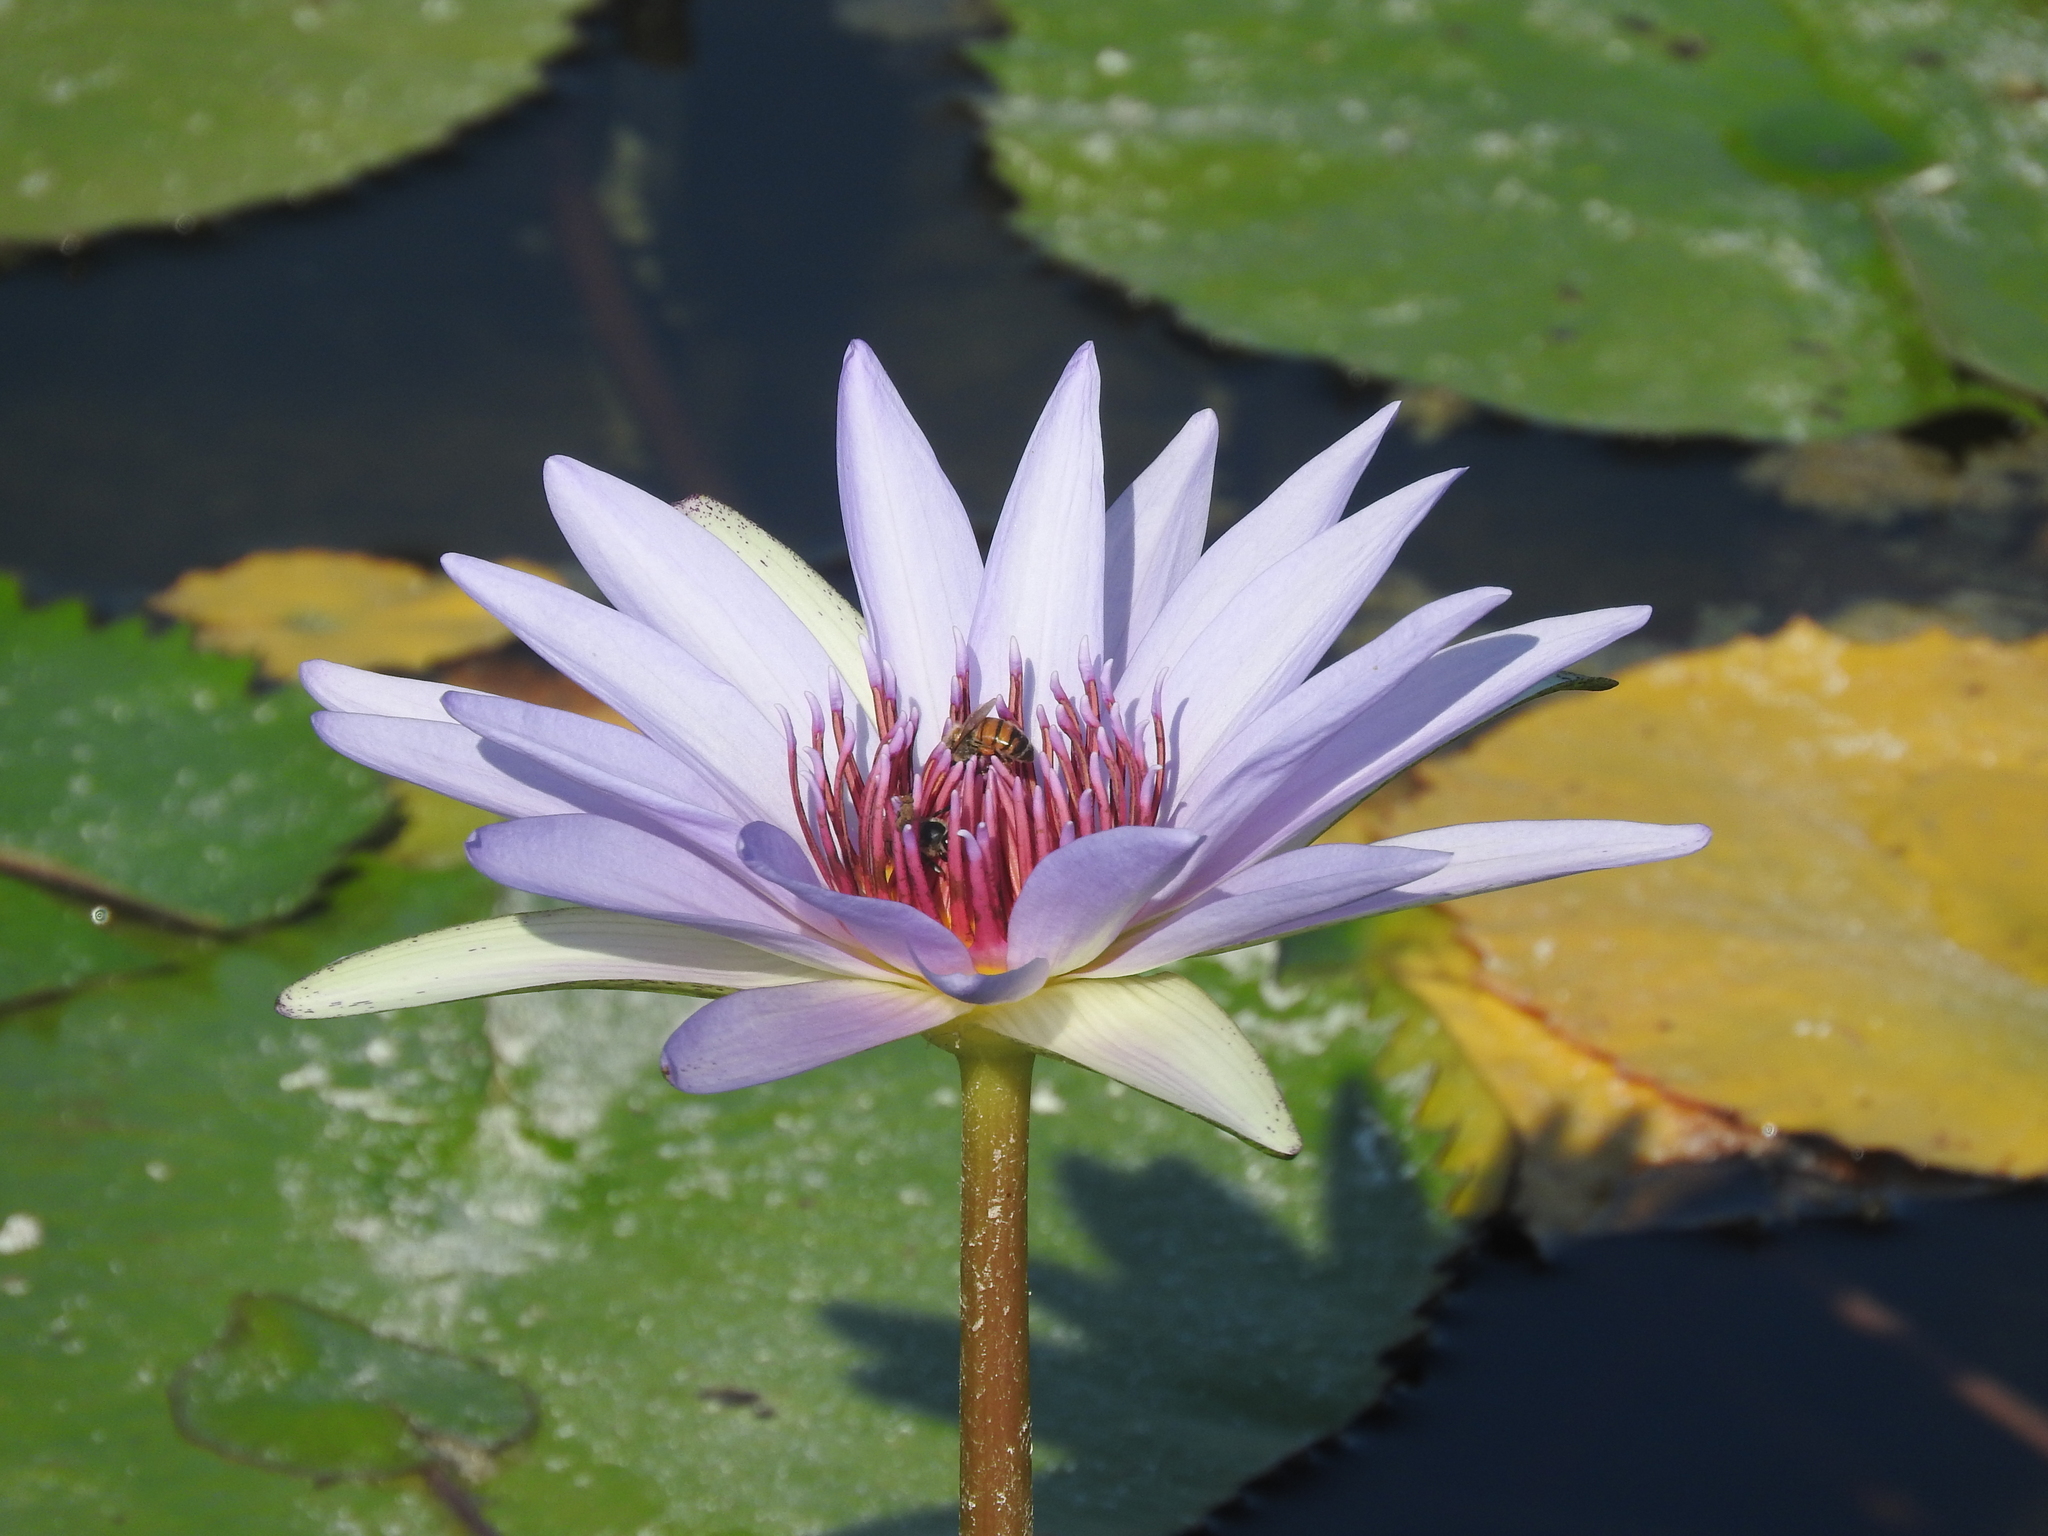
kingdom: Plantae
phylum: Tracheophyta
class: Magnoliopsida
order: Nymphaeales
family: Nymphaeaceae
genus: Nymphaea
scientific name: Nymphaea elegans
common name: Blue water-lily
